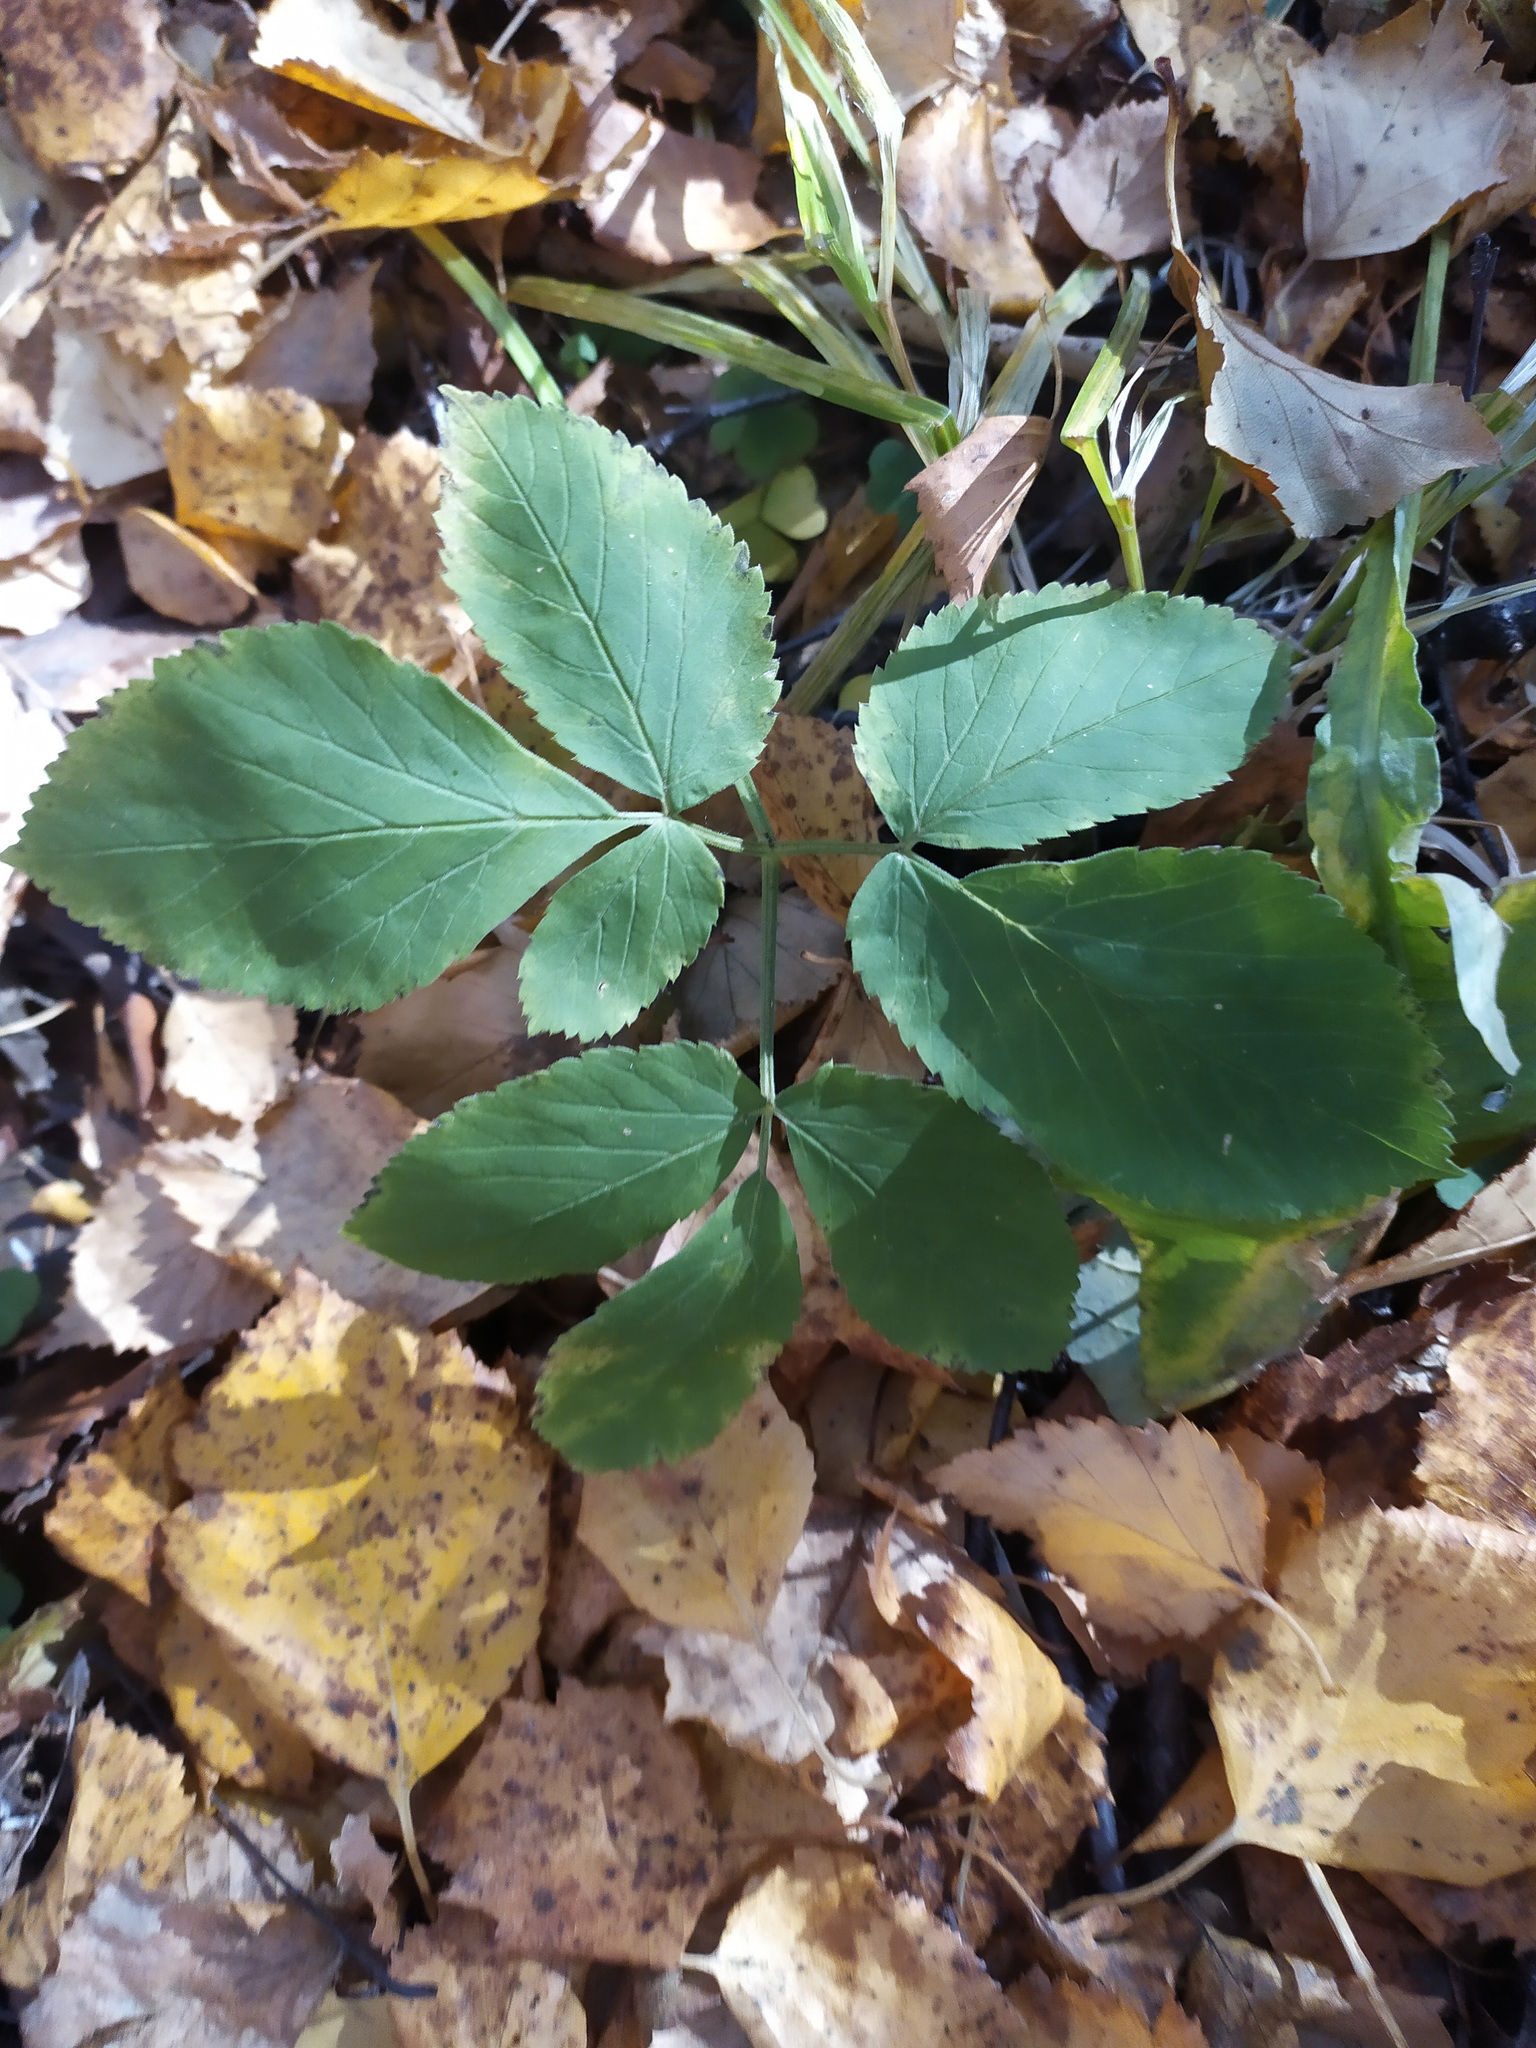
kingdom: Plantae
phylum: Tracheophyta
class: Magnoliopsida
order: Apiales
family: Apiaceae
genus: Aegopodium
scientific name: Aegopodium podagraria
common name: Ground-elder
